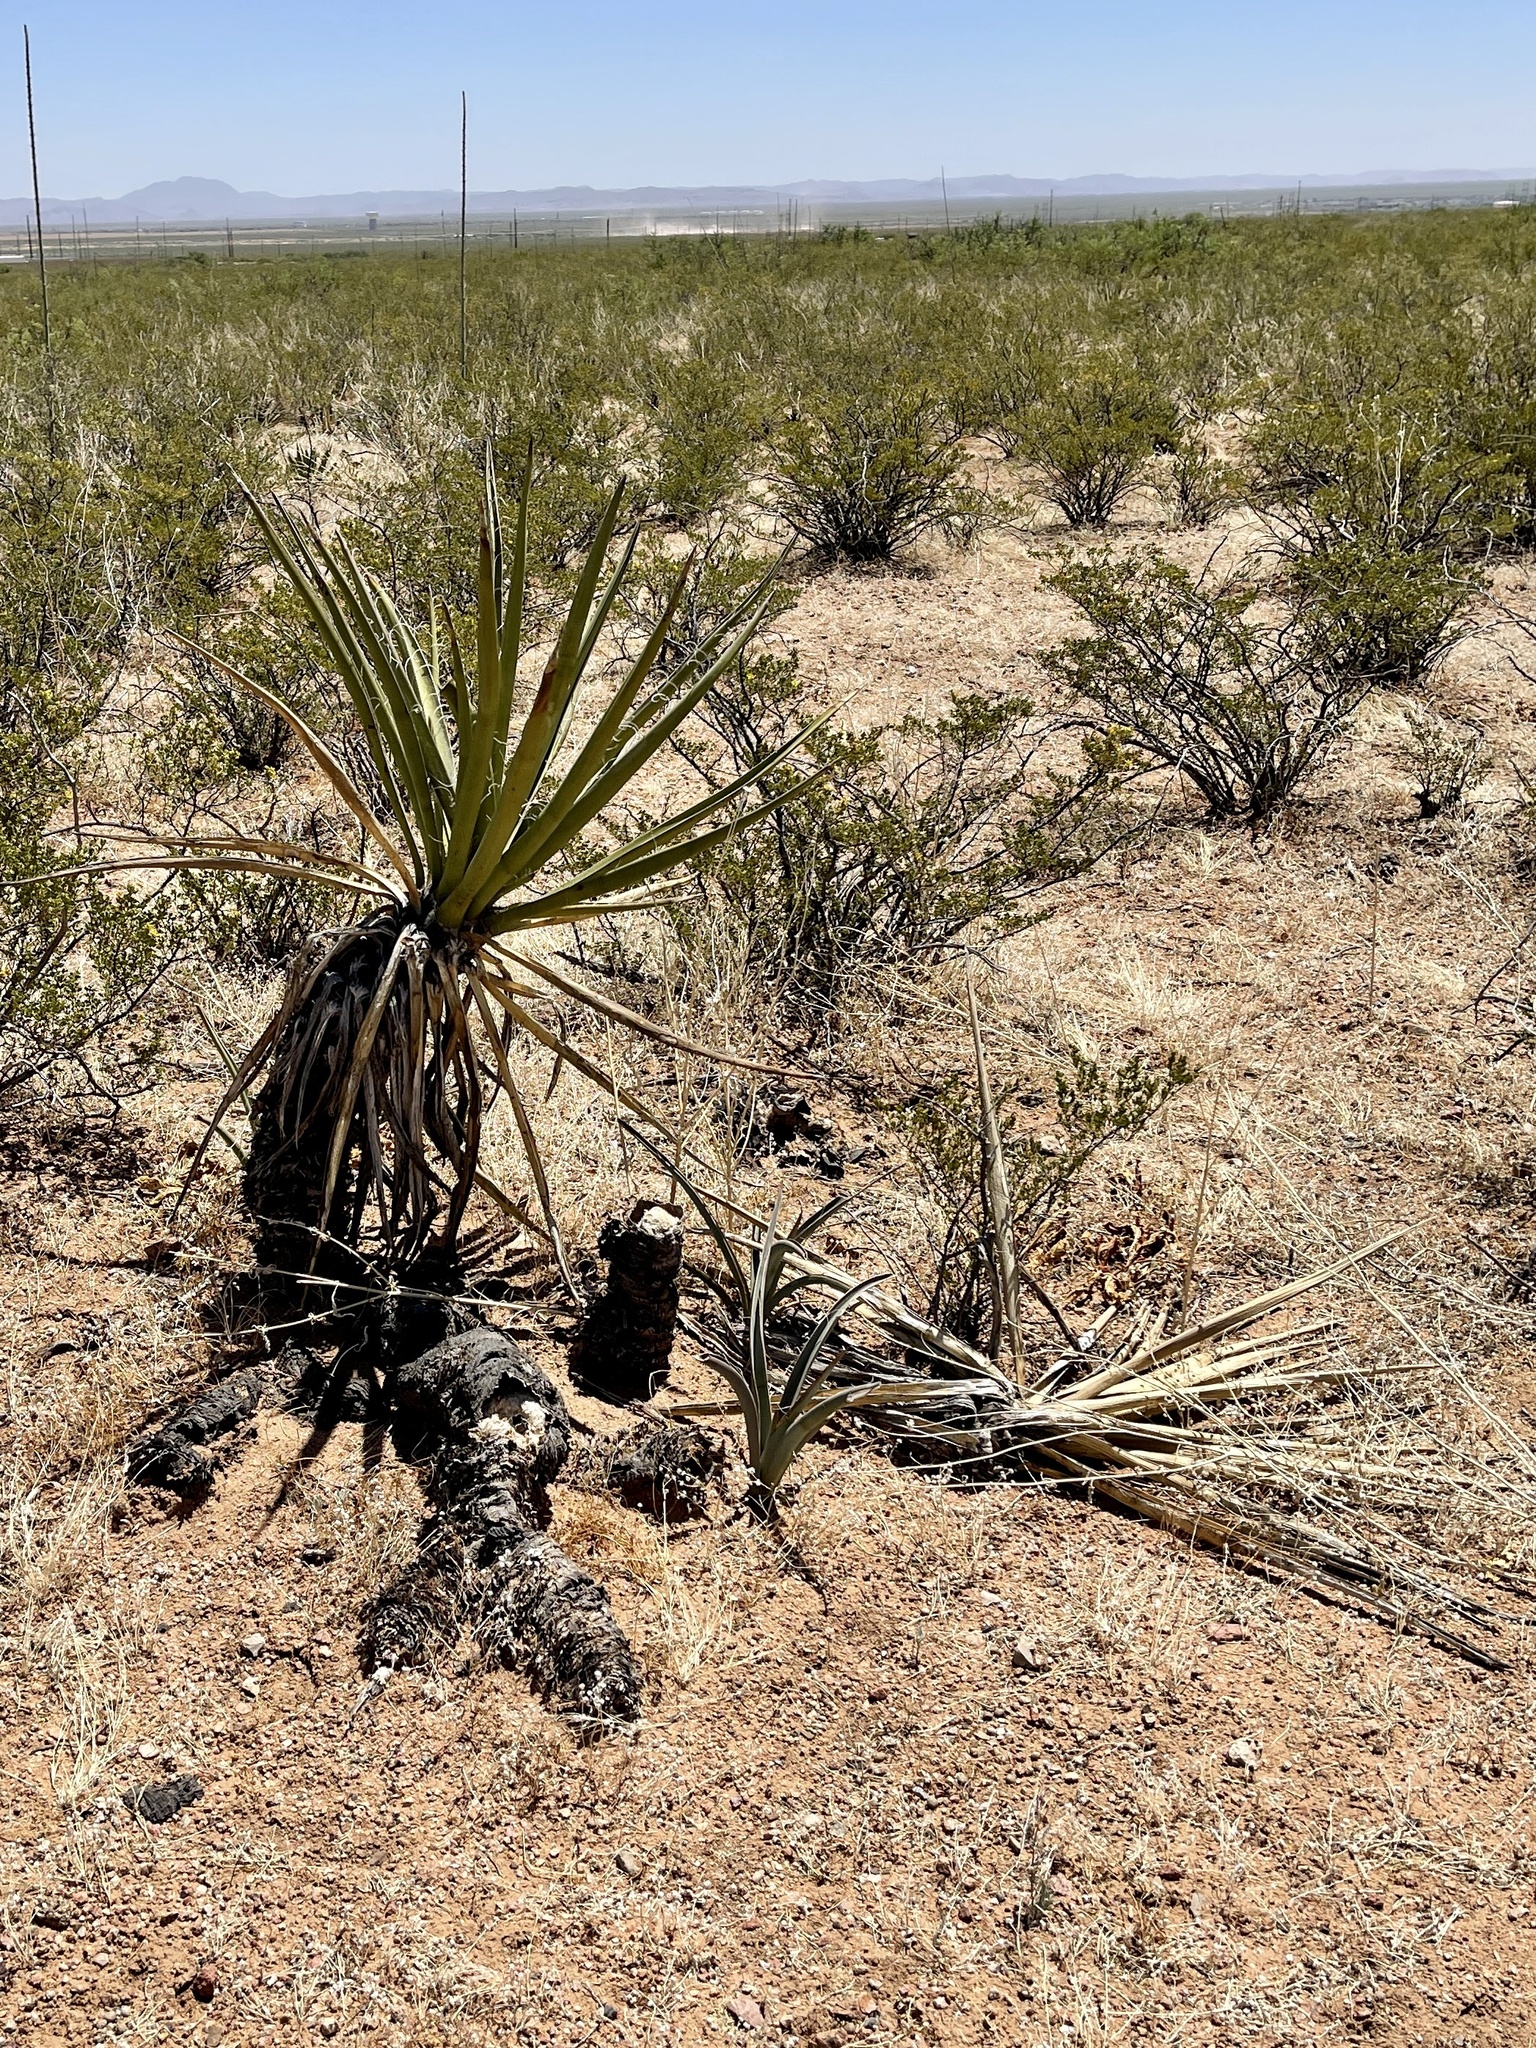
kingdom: Plantae
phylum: Tracheophyta
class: Liliopsida
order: Asparagales
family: Asparagaceae
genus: Yucca
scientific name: Yucca baccata
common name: Banana yucca
